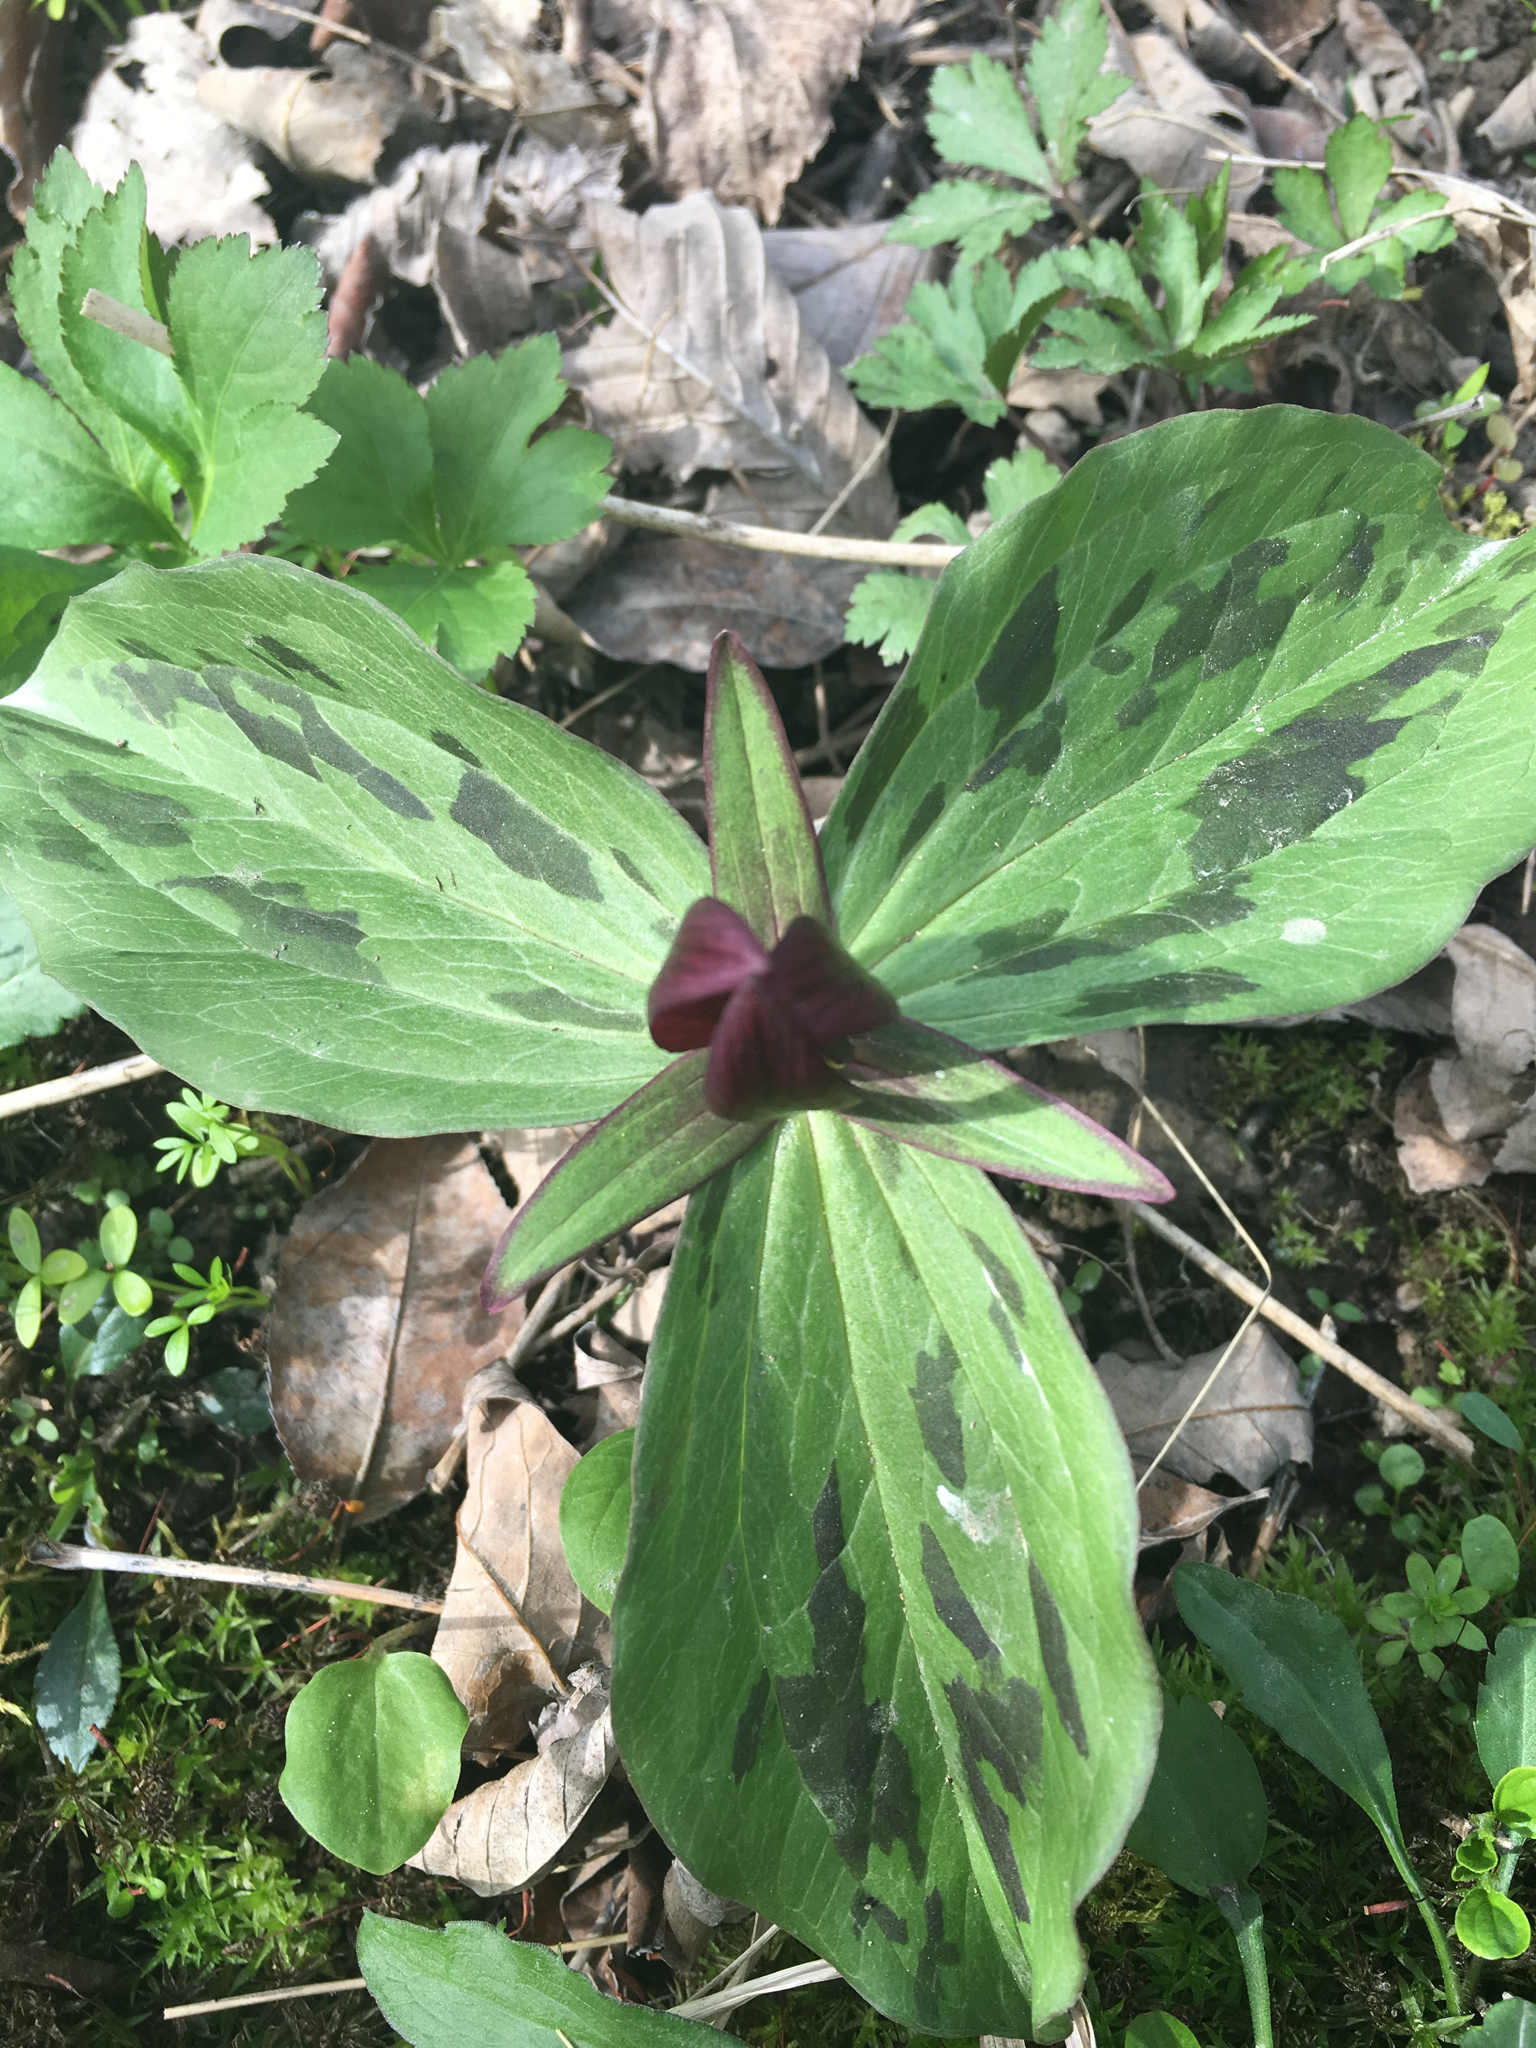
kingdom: Plantae
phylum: Tracheophyta
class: Liliopsida
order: Liliales
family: Melanthiaceae
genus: Trillium
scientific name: Trillium sessile
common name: Sessile trillium
